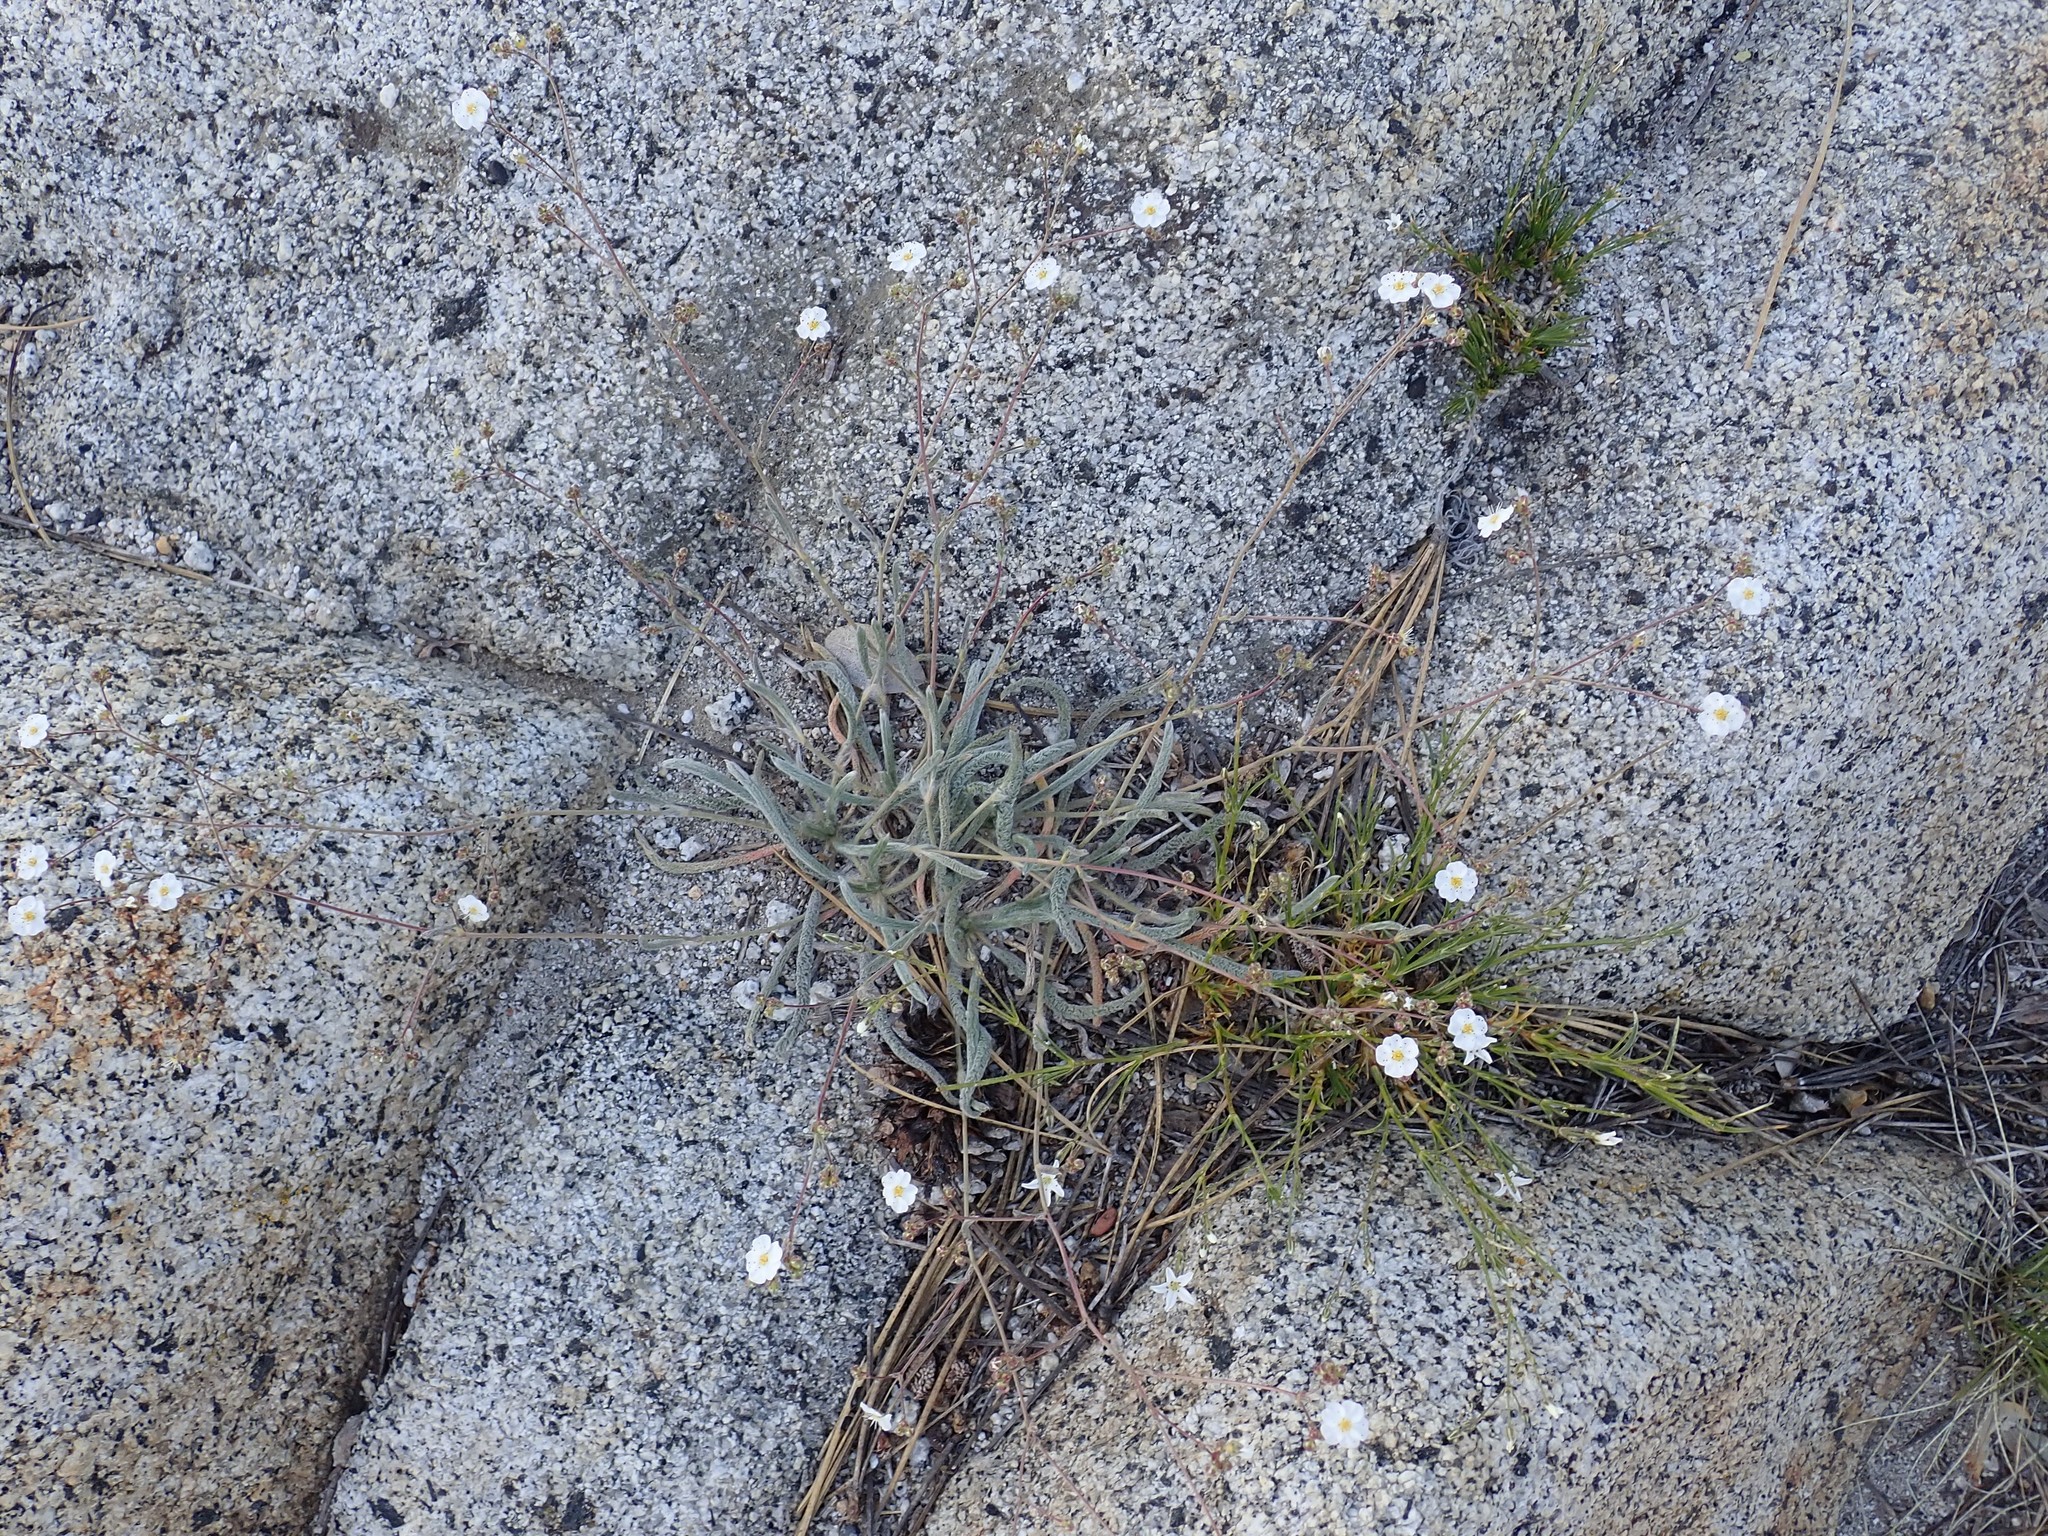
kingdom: Plantae
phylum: Tracheophyta
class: Magnoliopsida
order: Rosales
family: Rosaceae
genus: Potentilla
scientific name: Potentilla santolinoides
